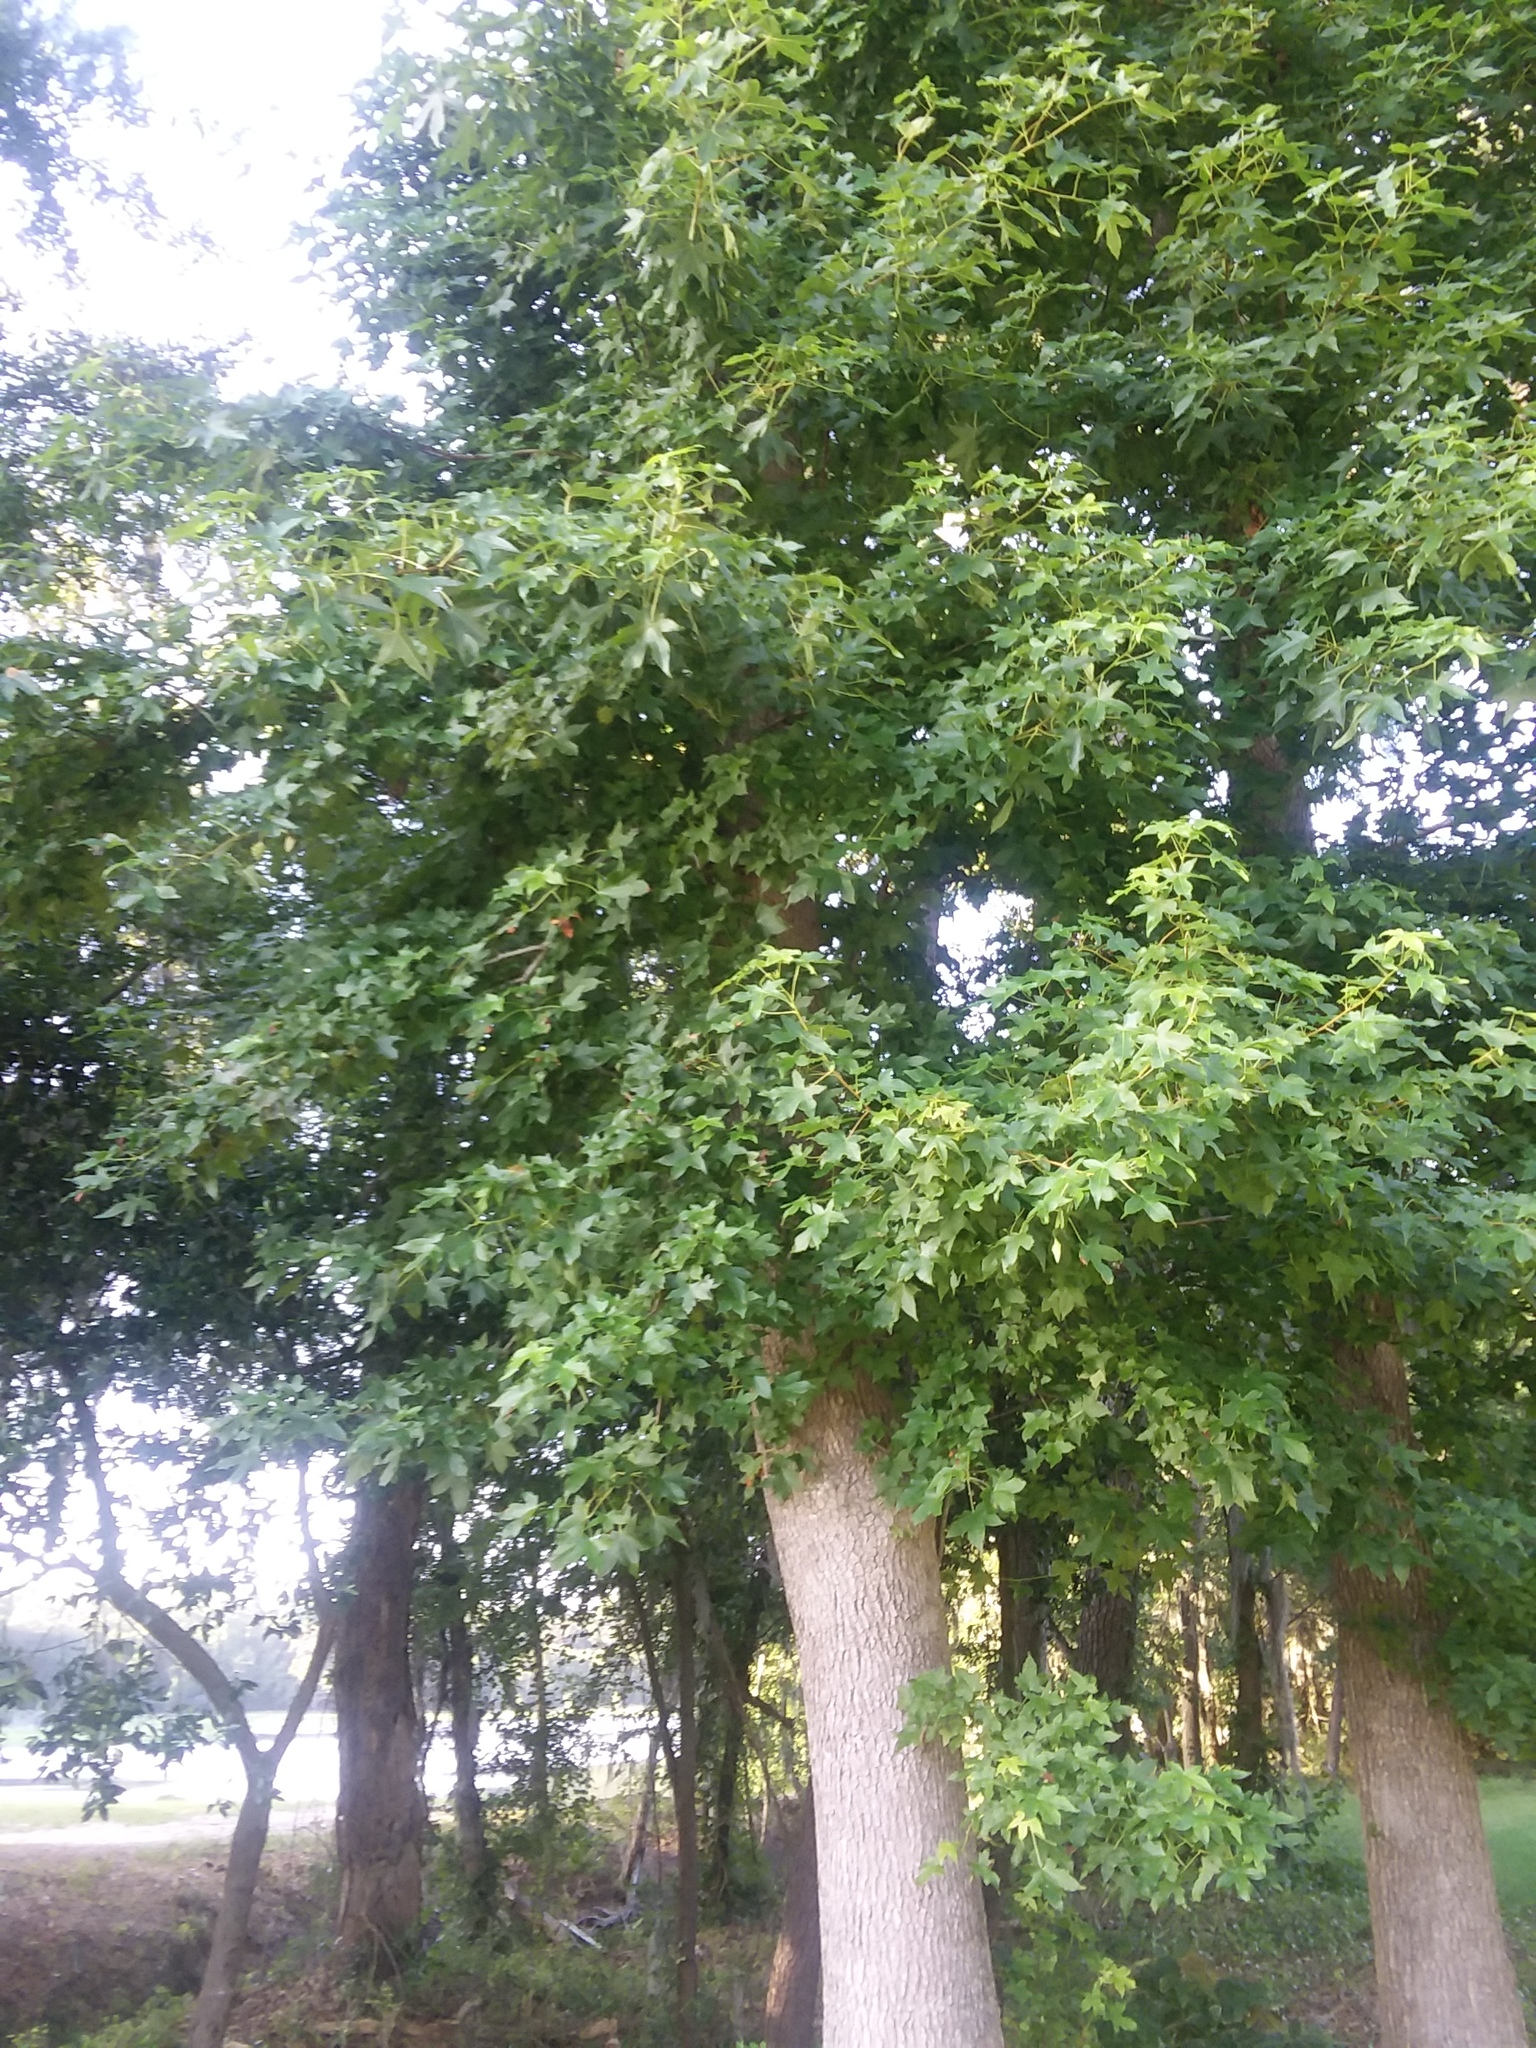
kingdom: Plantae
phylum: Tracheophyta
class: Magnoliopsida
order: Saxifragales
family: Altingiaceae
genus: Liquidambar
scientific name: Liquidambar styraciflua
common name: Sweet gum
